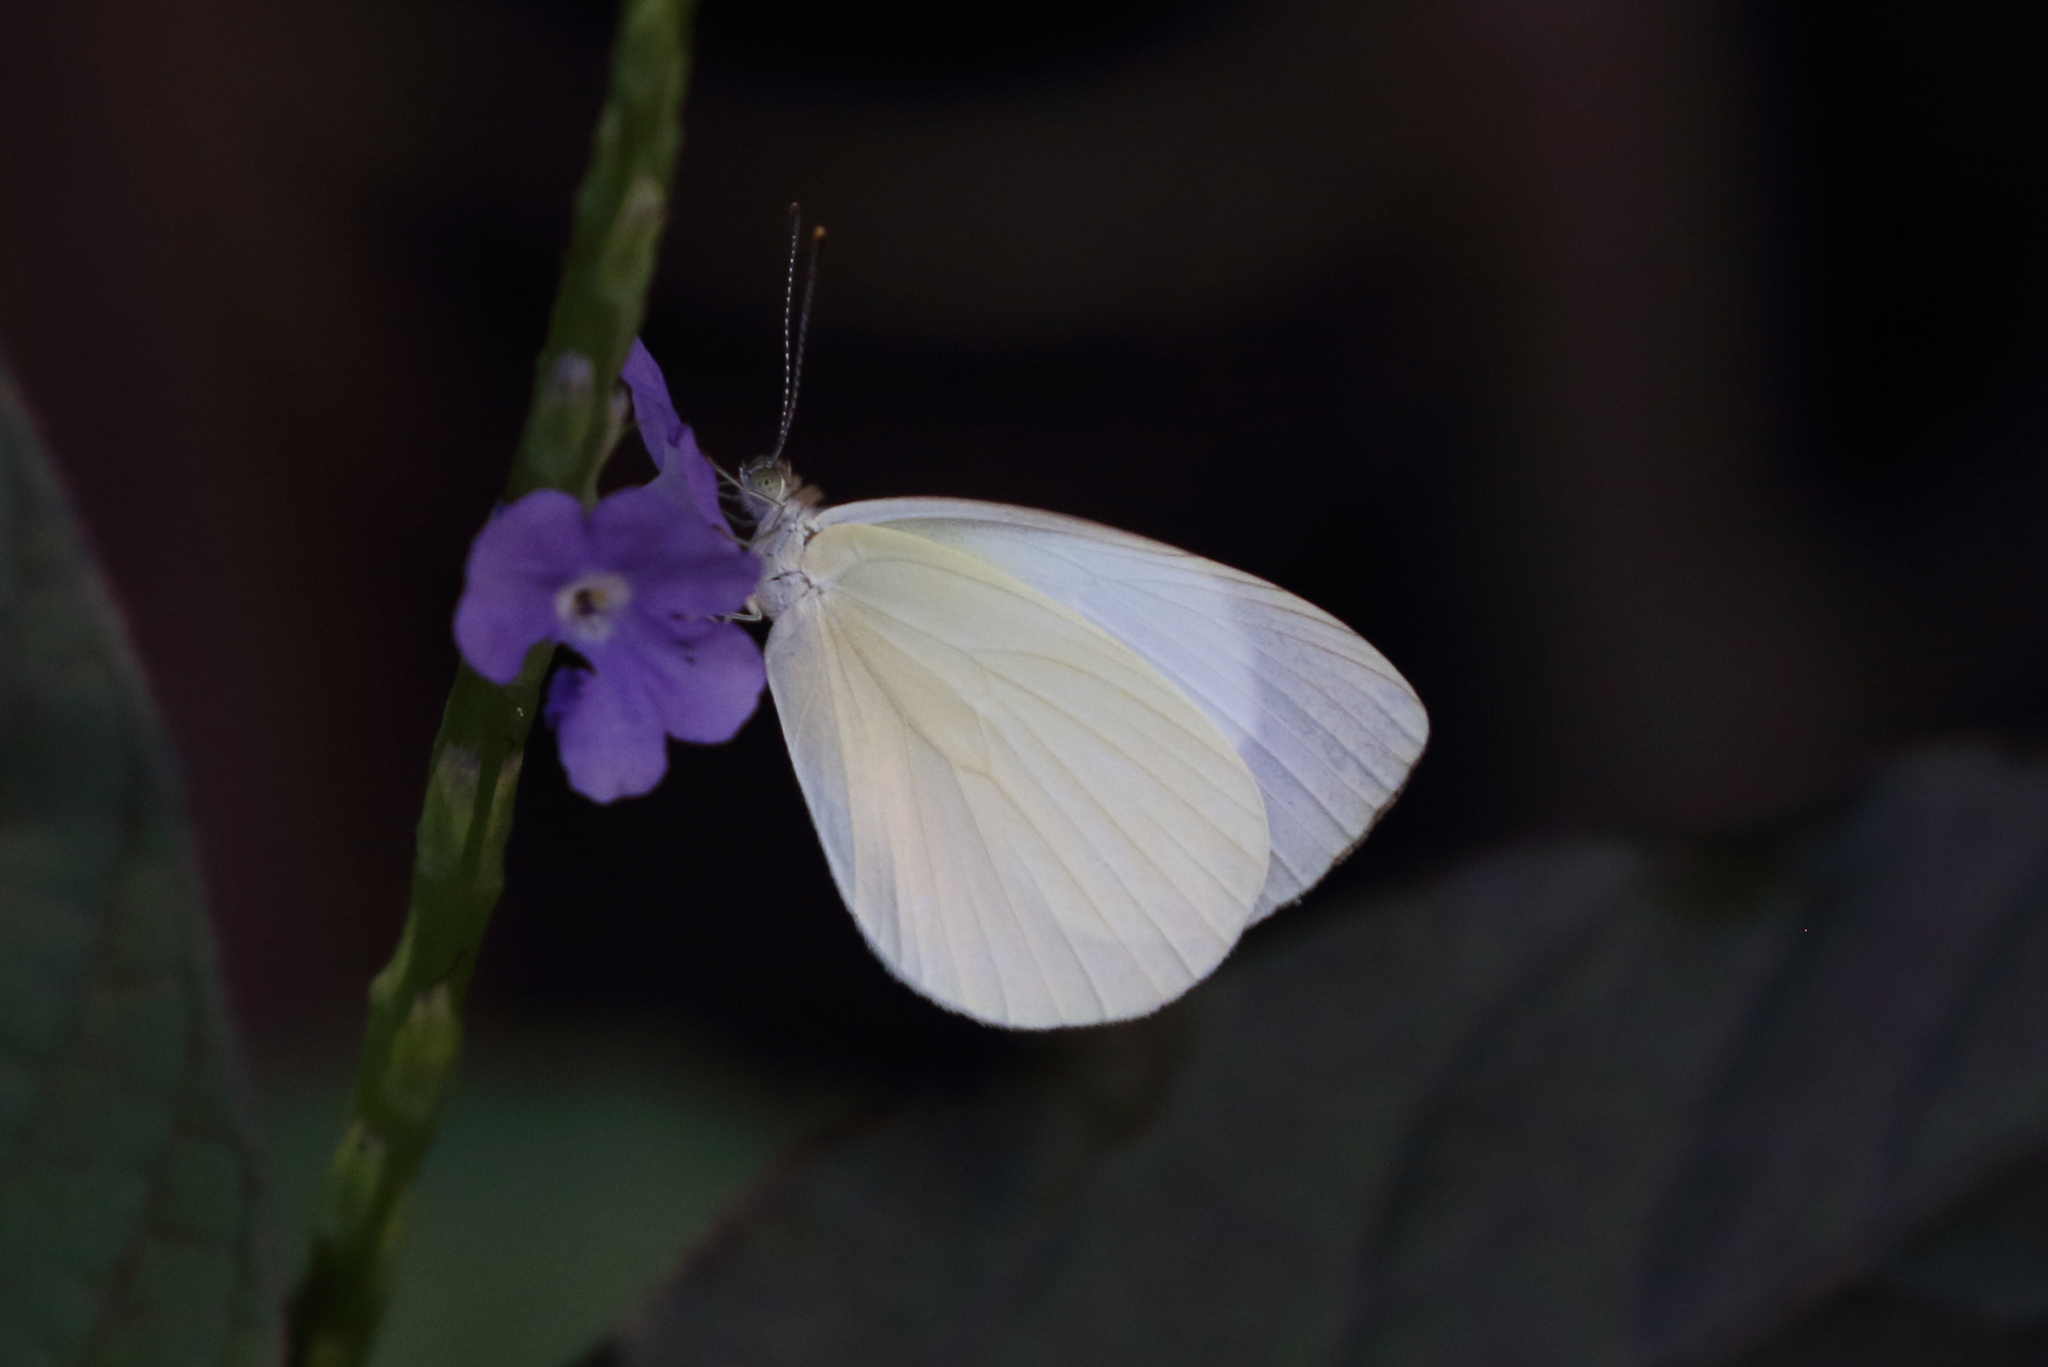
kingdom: Animalia
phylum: Arthropoda
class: Insecta
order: Lepidoptera
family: Pieridae
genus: Elodina
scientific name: Elodina claudia
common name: Cape york pearl-white
